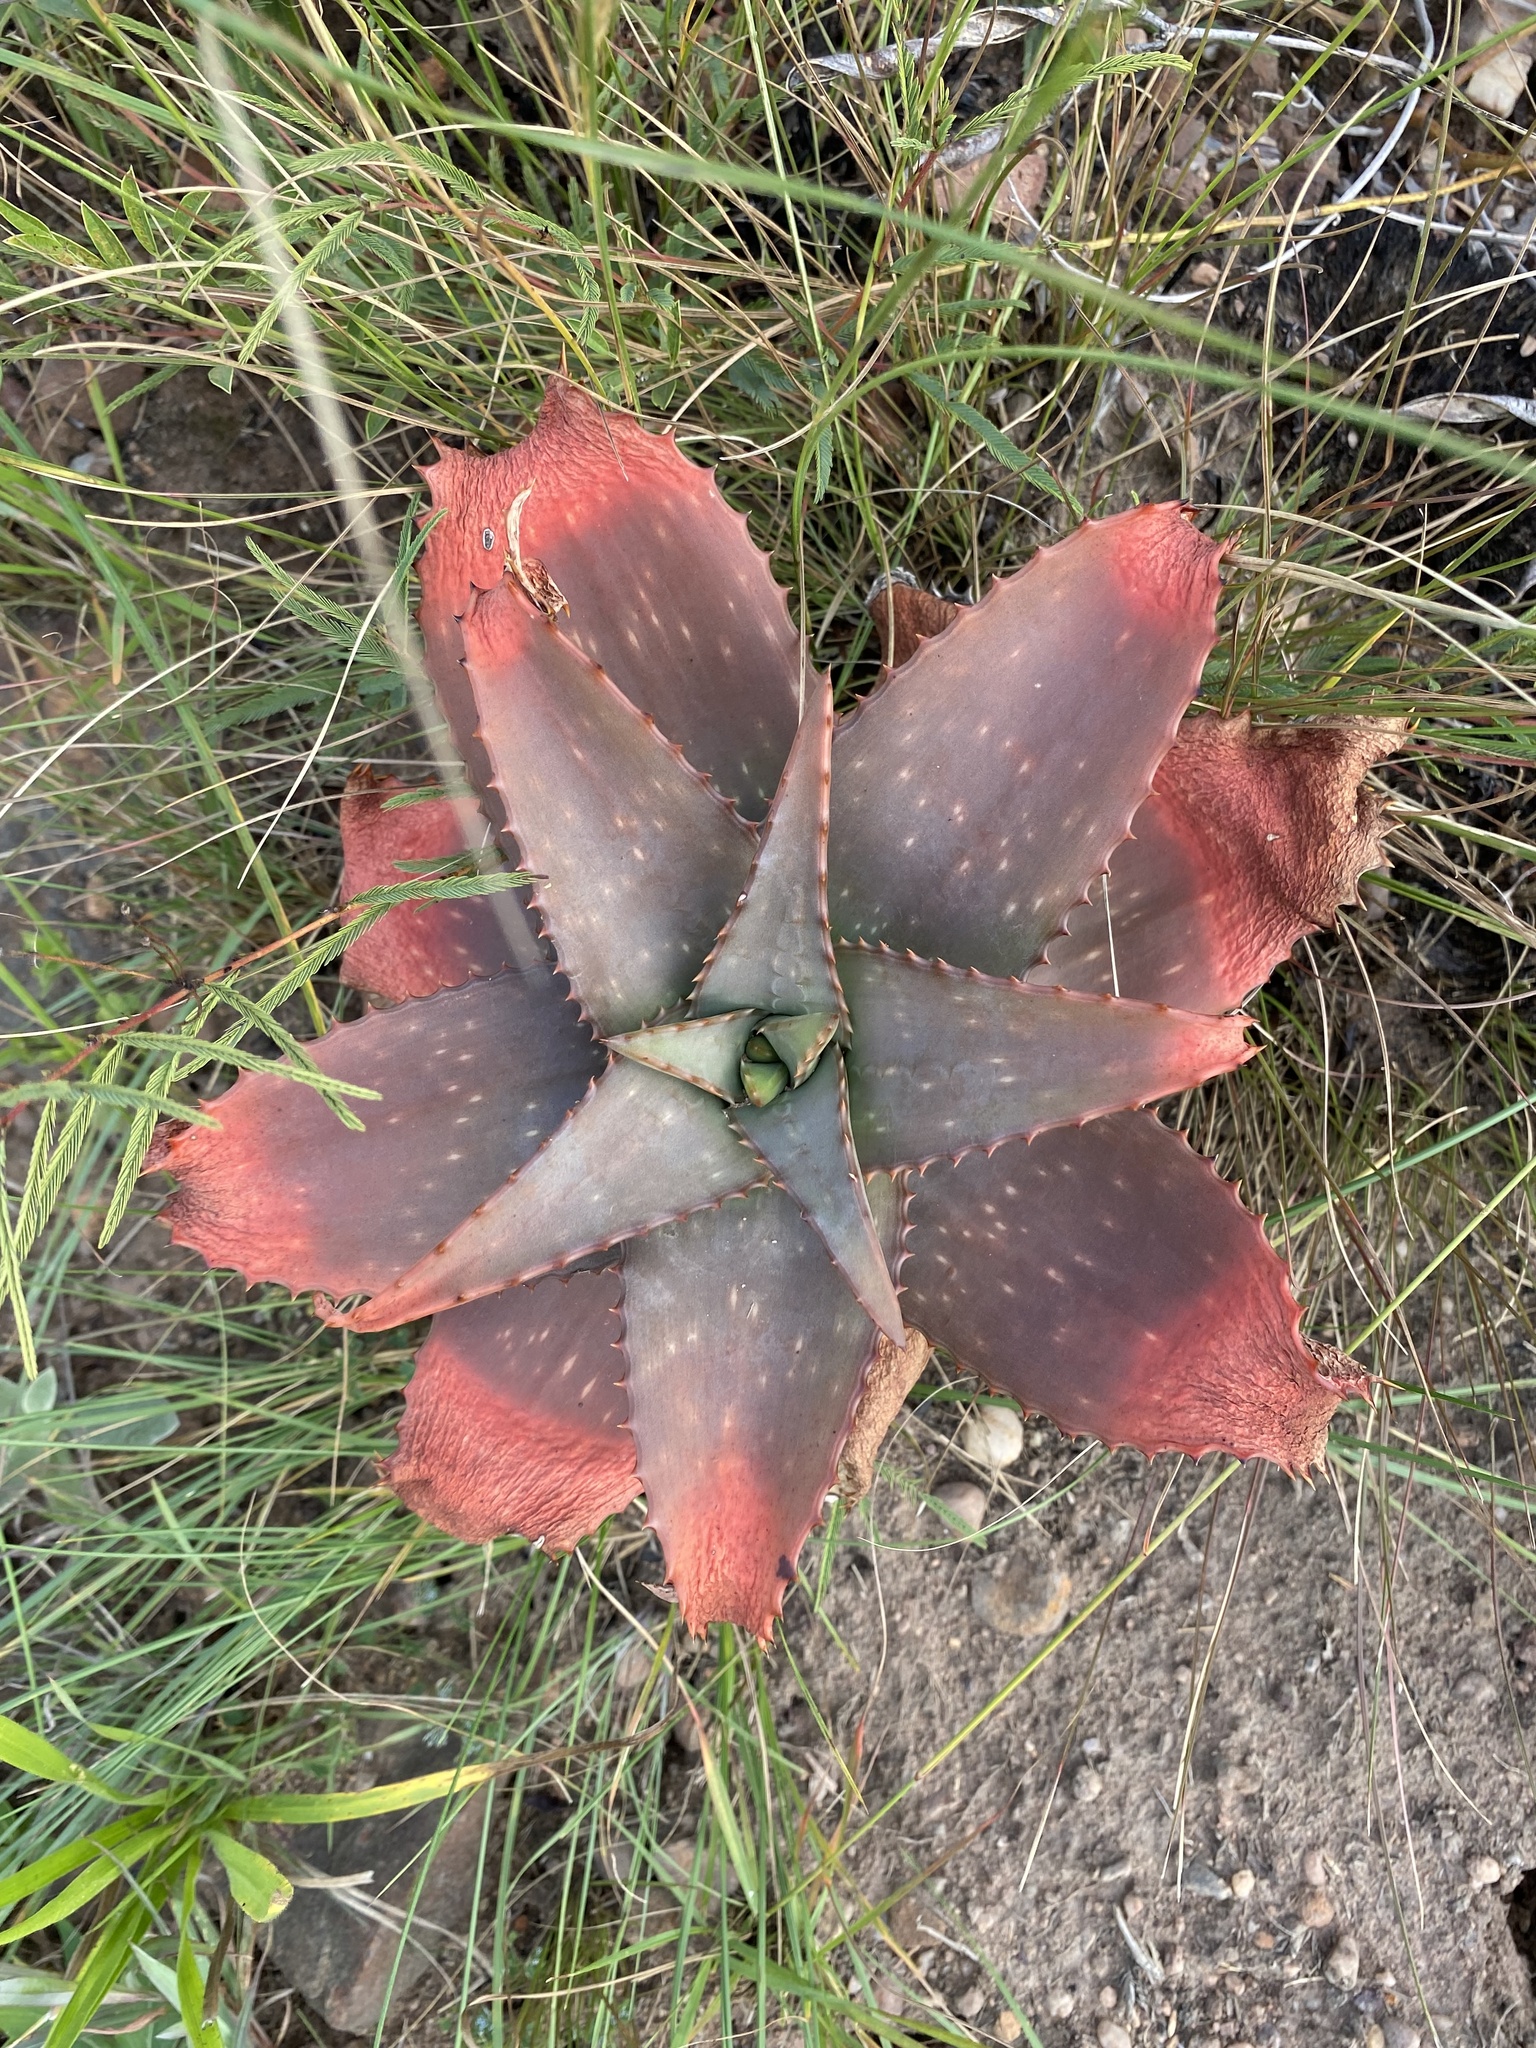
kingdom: Plantae
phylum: Tracheophyta
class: Liliopsida
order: Asparagales
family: Asphodelaceae
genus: Aloe
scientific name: Aloe maculata
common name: Broadleaf aloe
